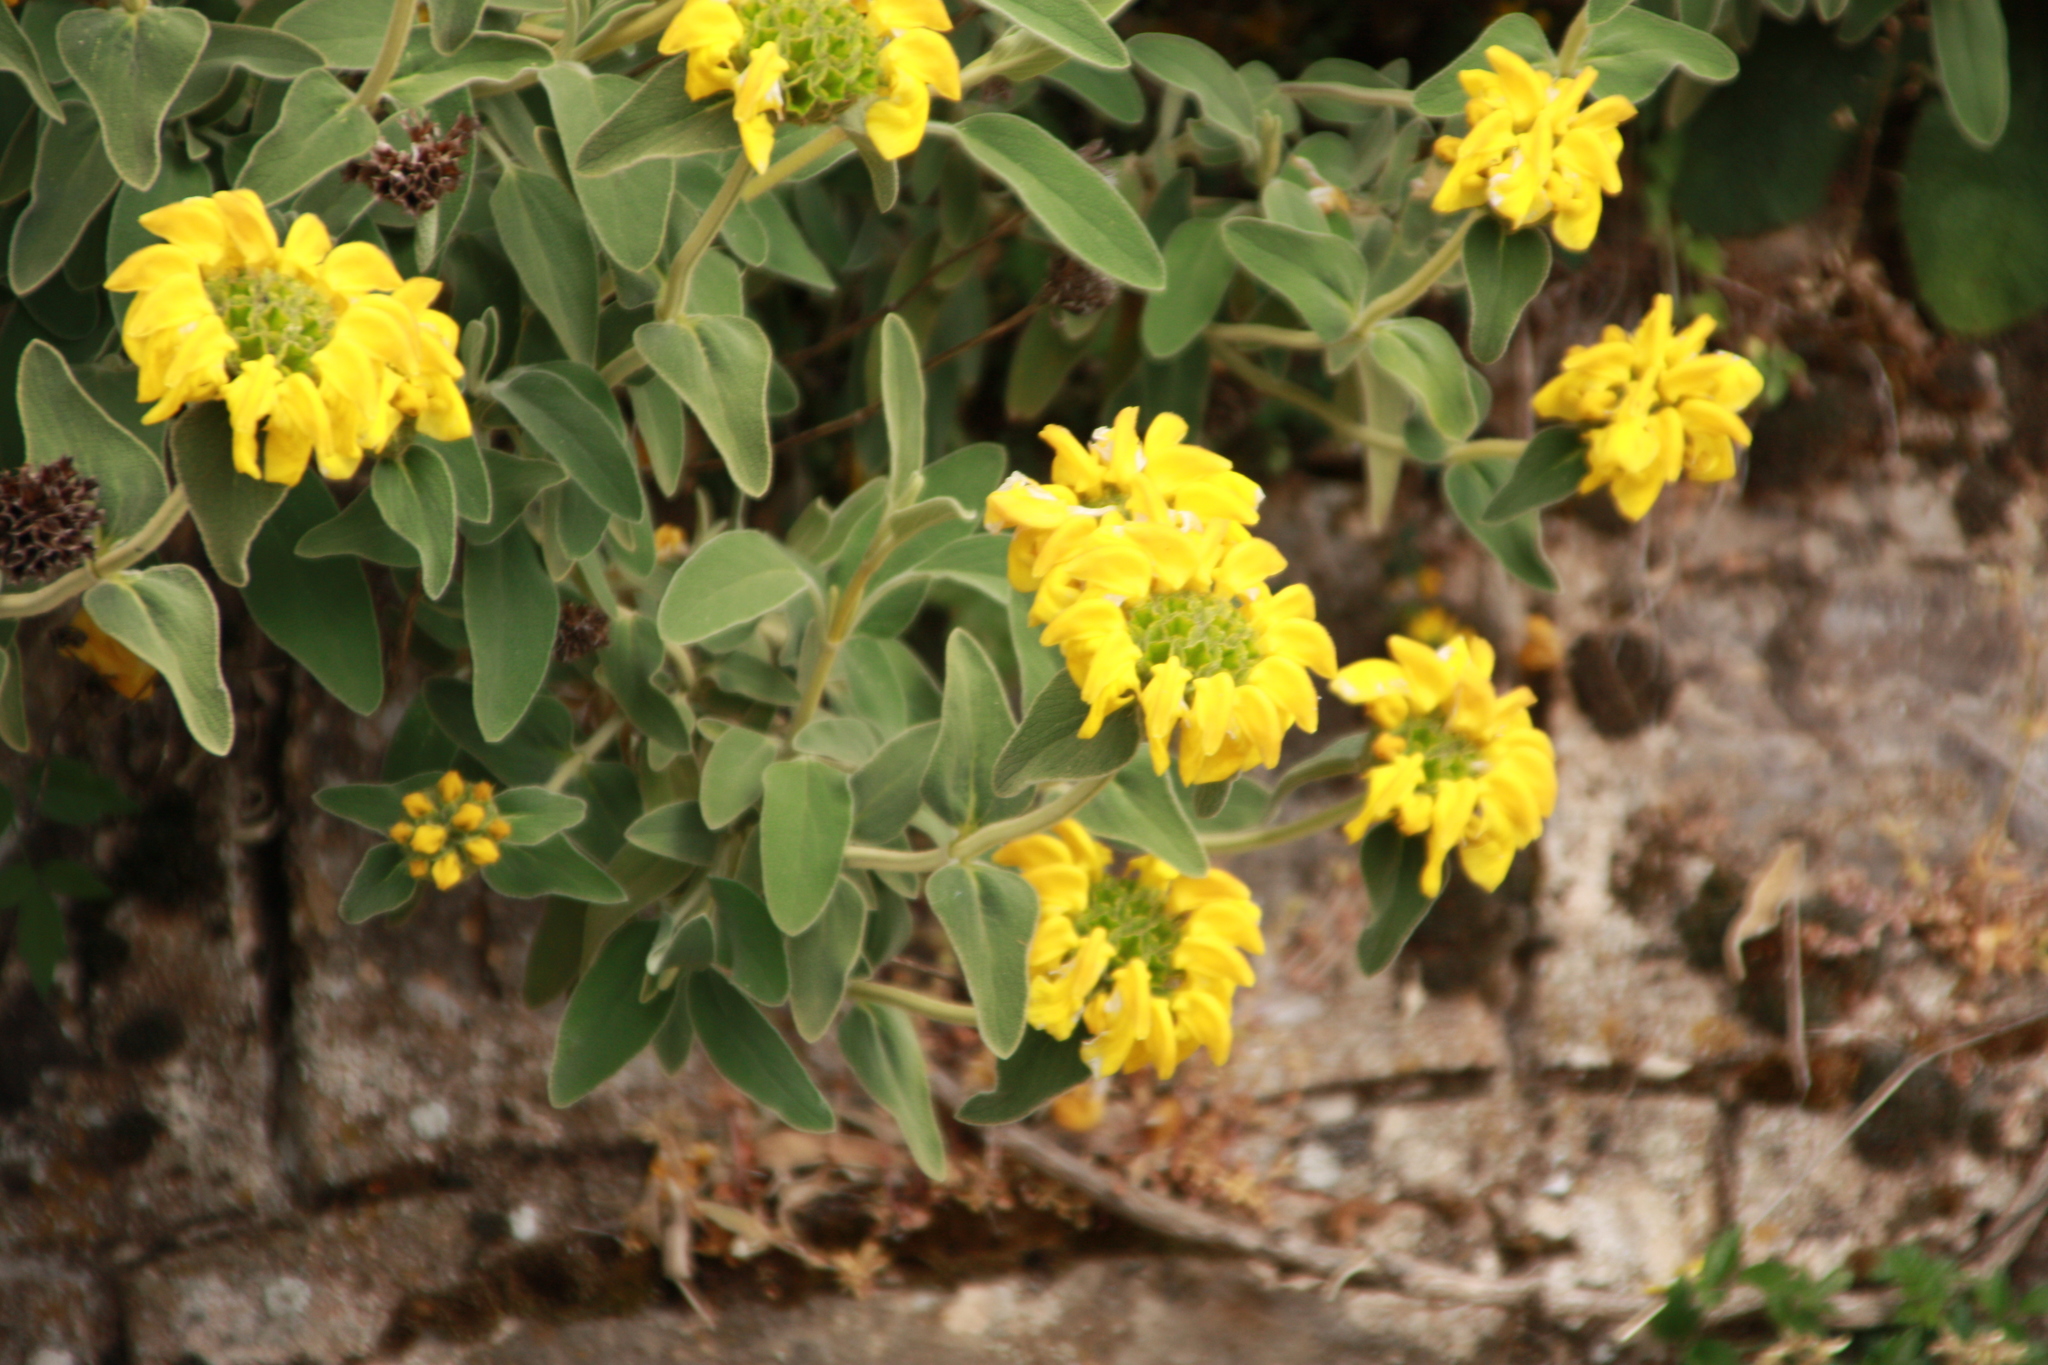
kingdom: Plantae
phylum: Tracheophyta
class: Magnoliopsida
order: Lamiales
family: Lamiaceae
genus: Phlomis
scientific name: Phlomis fruticosa
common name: Jerusalem sage
